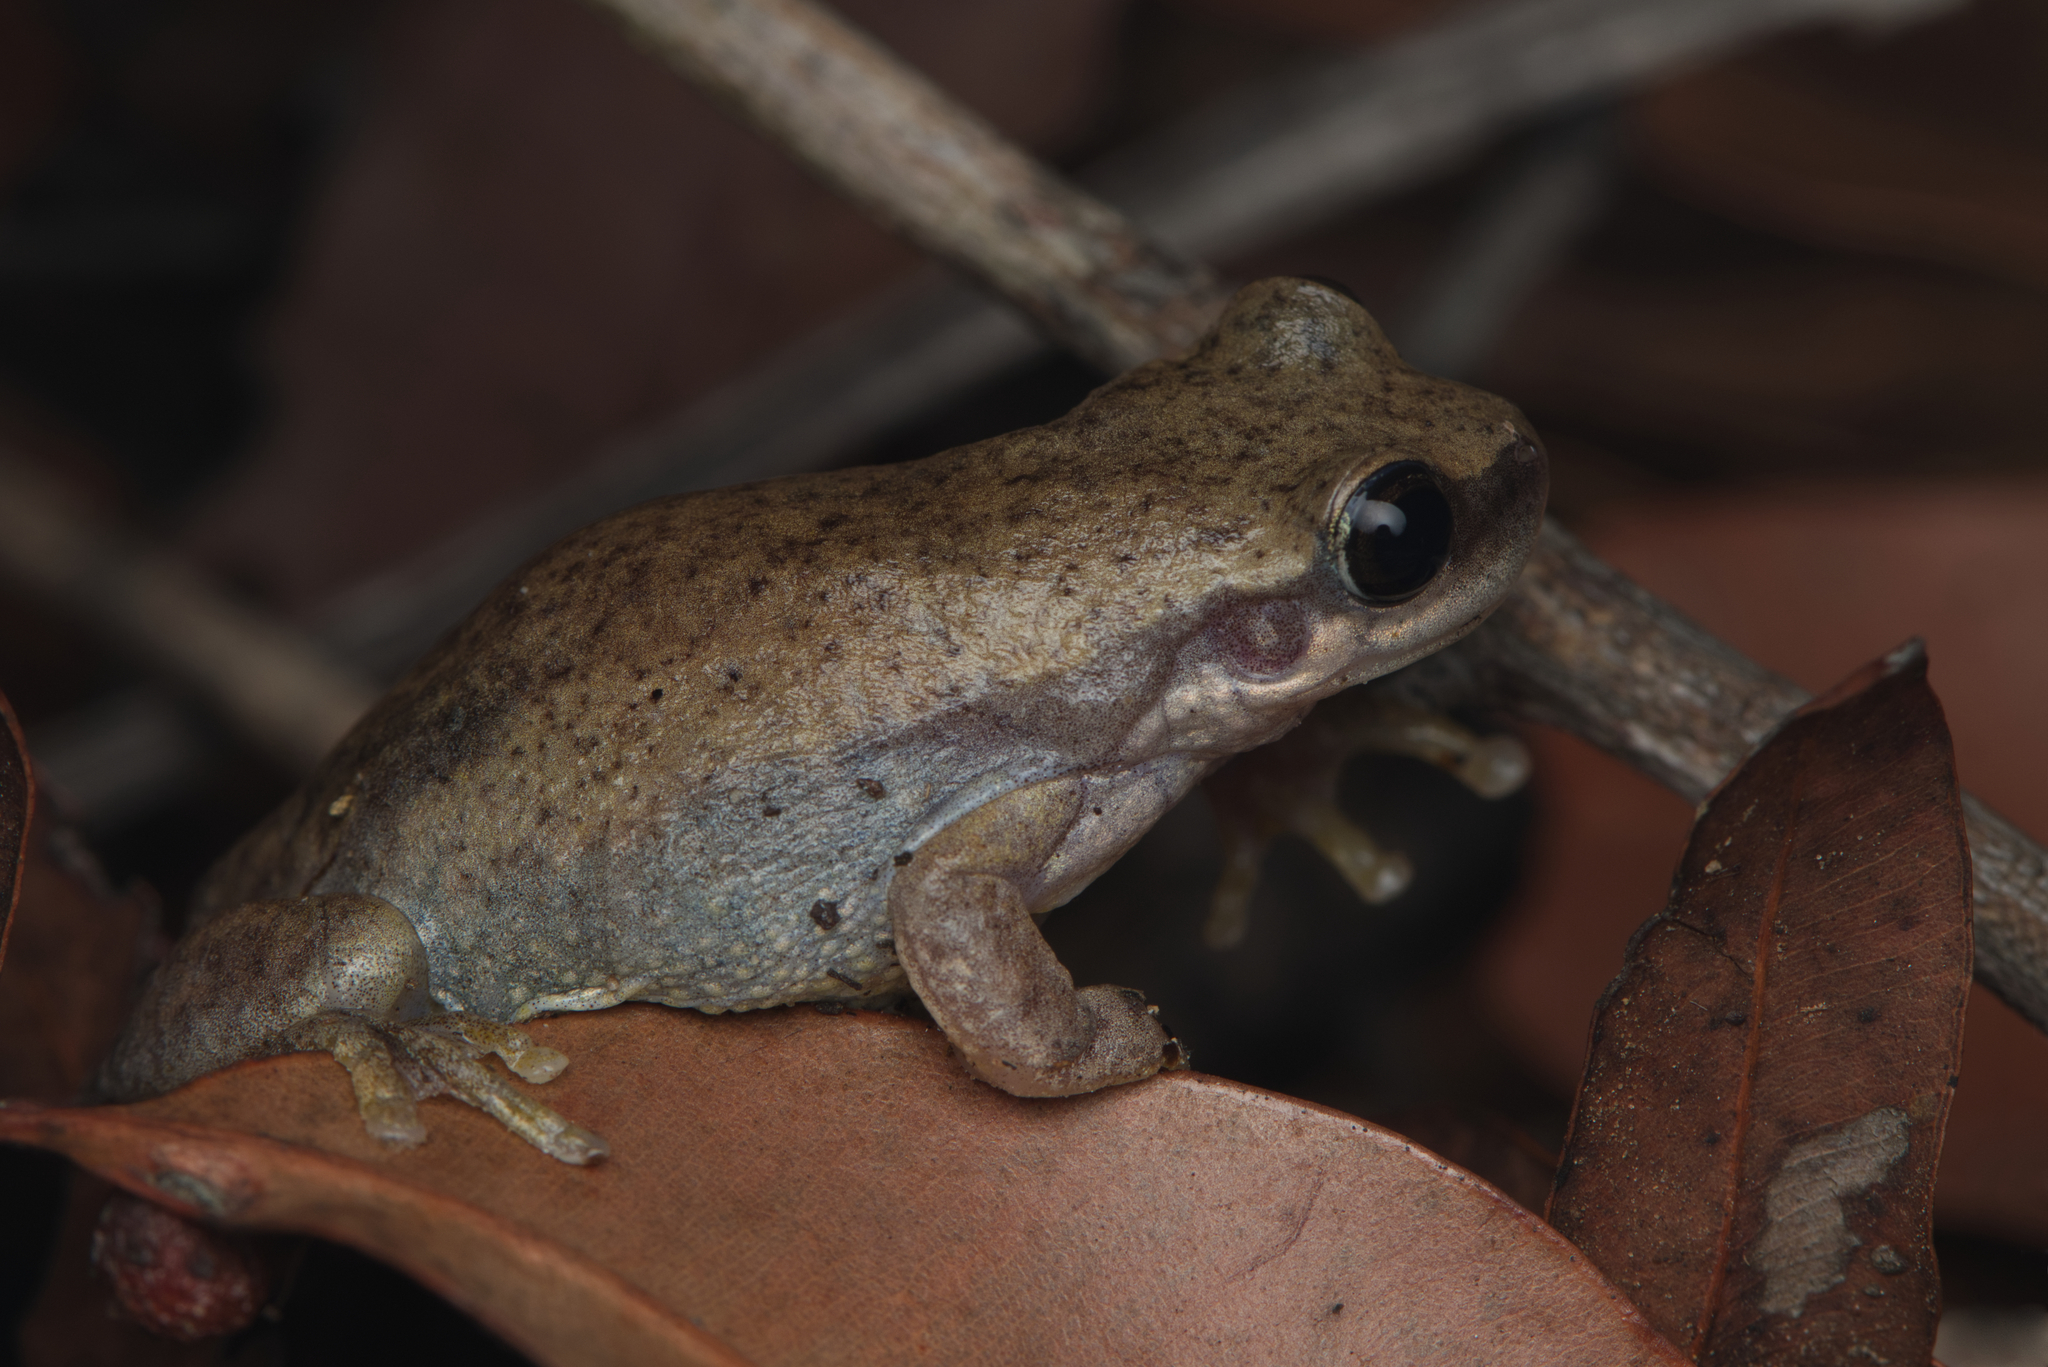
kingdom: Animalia
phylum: Chordata
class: Amphibia
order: Anura
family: Pelodryadidae
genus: Litoria
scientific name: Litoria rubella
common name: Desert tree frog
